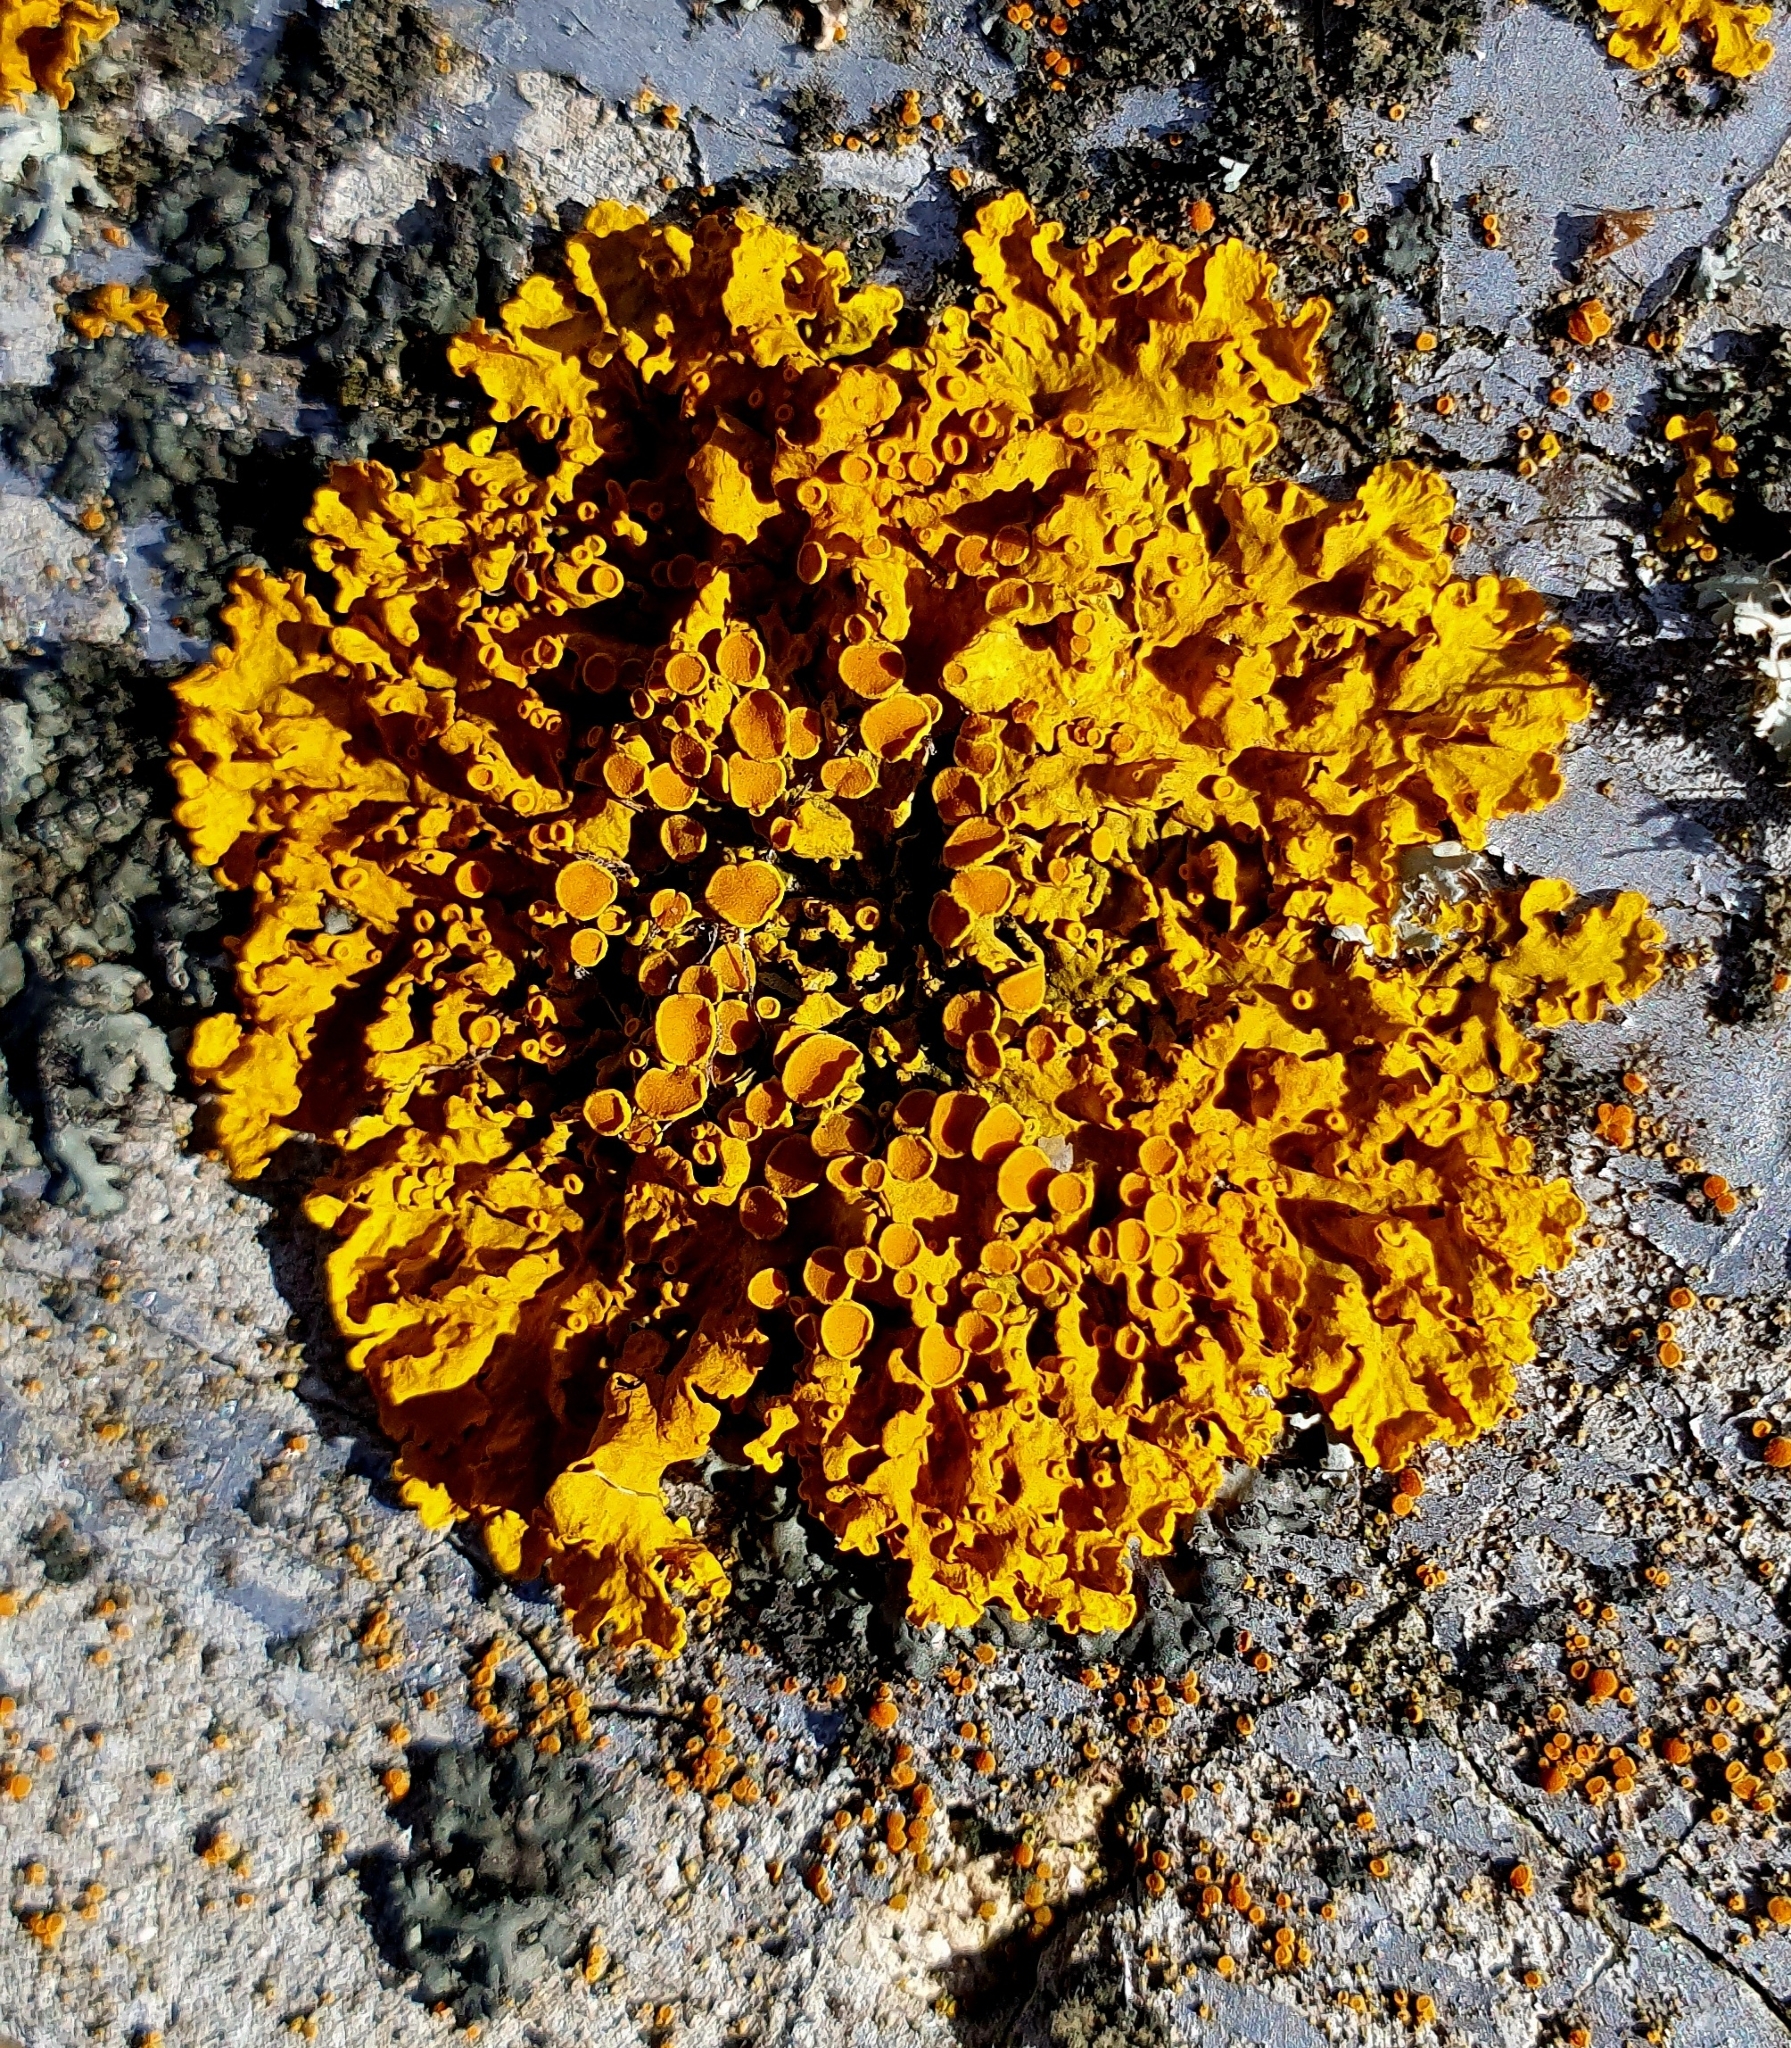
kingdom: Fungi
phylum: Ascomycota
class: Lecanoromycetes
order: Teloschistales
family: Teloschistaceae
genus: Xanthoria
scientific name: Xanthoria parietina
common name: Common orange lichen
